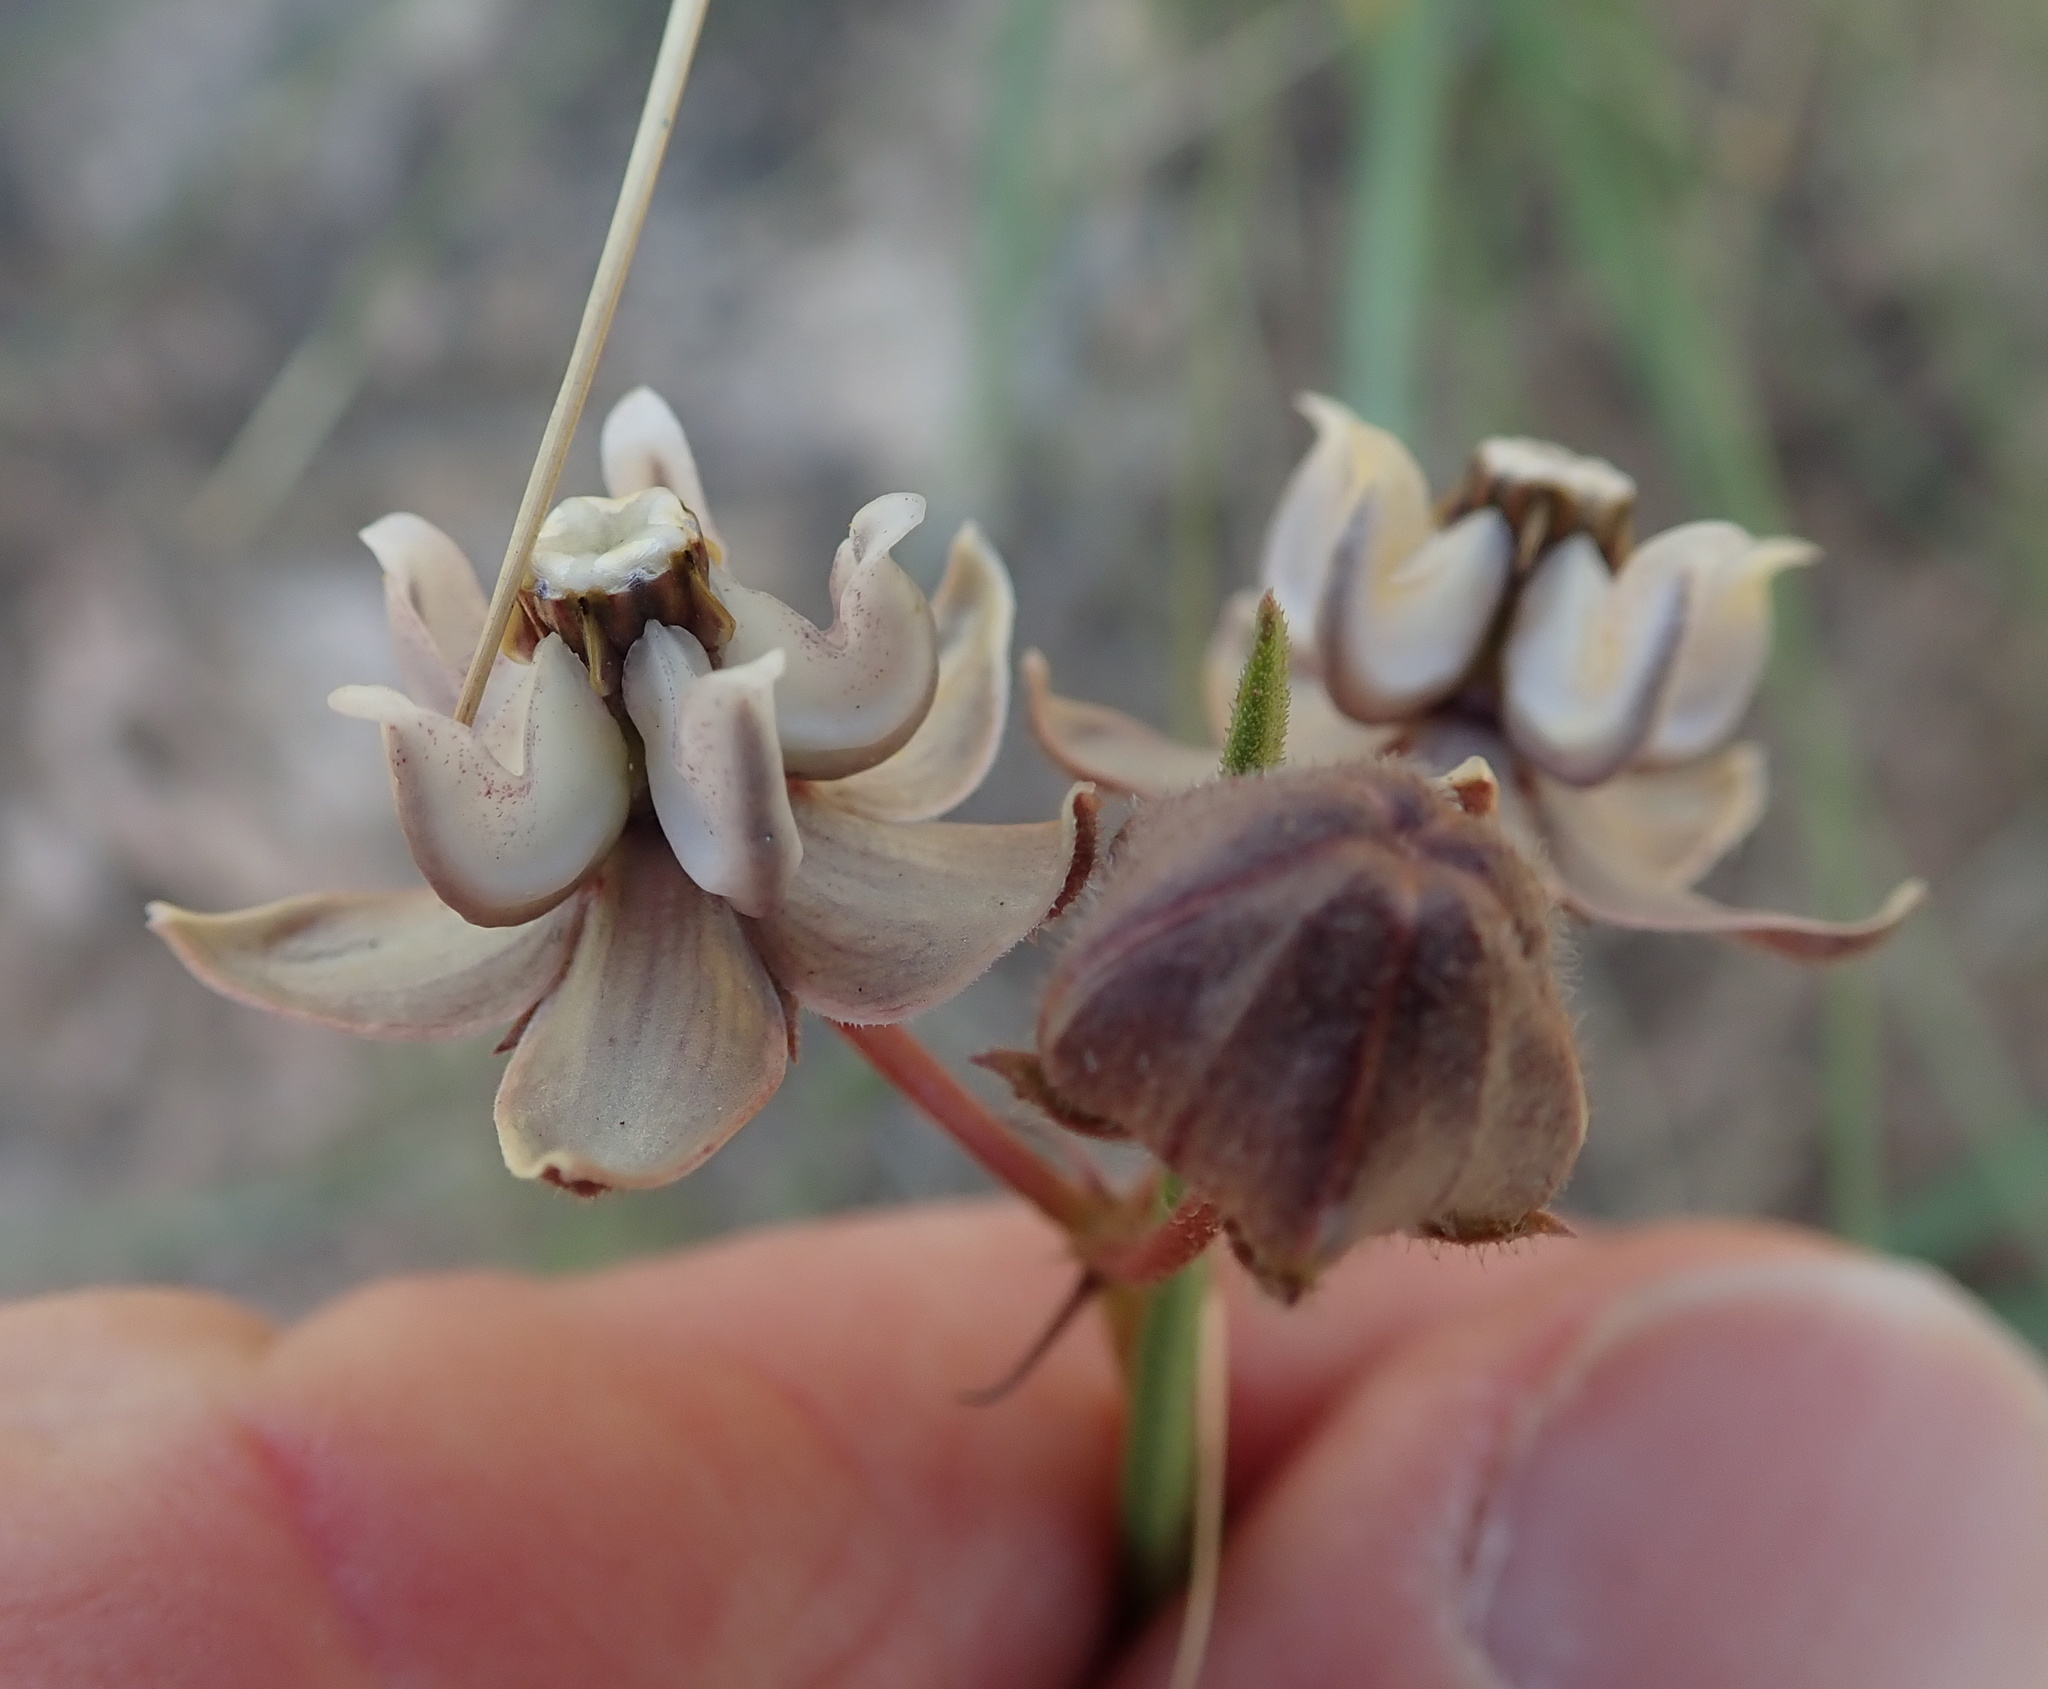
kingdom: Plantae
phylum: Tracheophyta
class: Magnoliopsida
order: Gentianales
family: Apocynaceae
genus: Asclepias
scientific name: Asclepias cucullata
